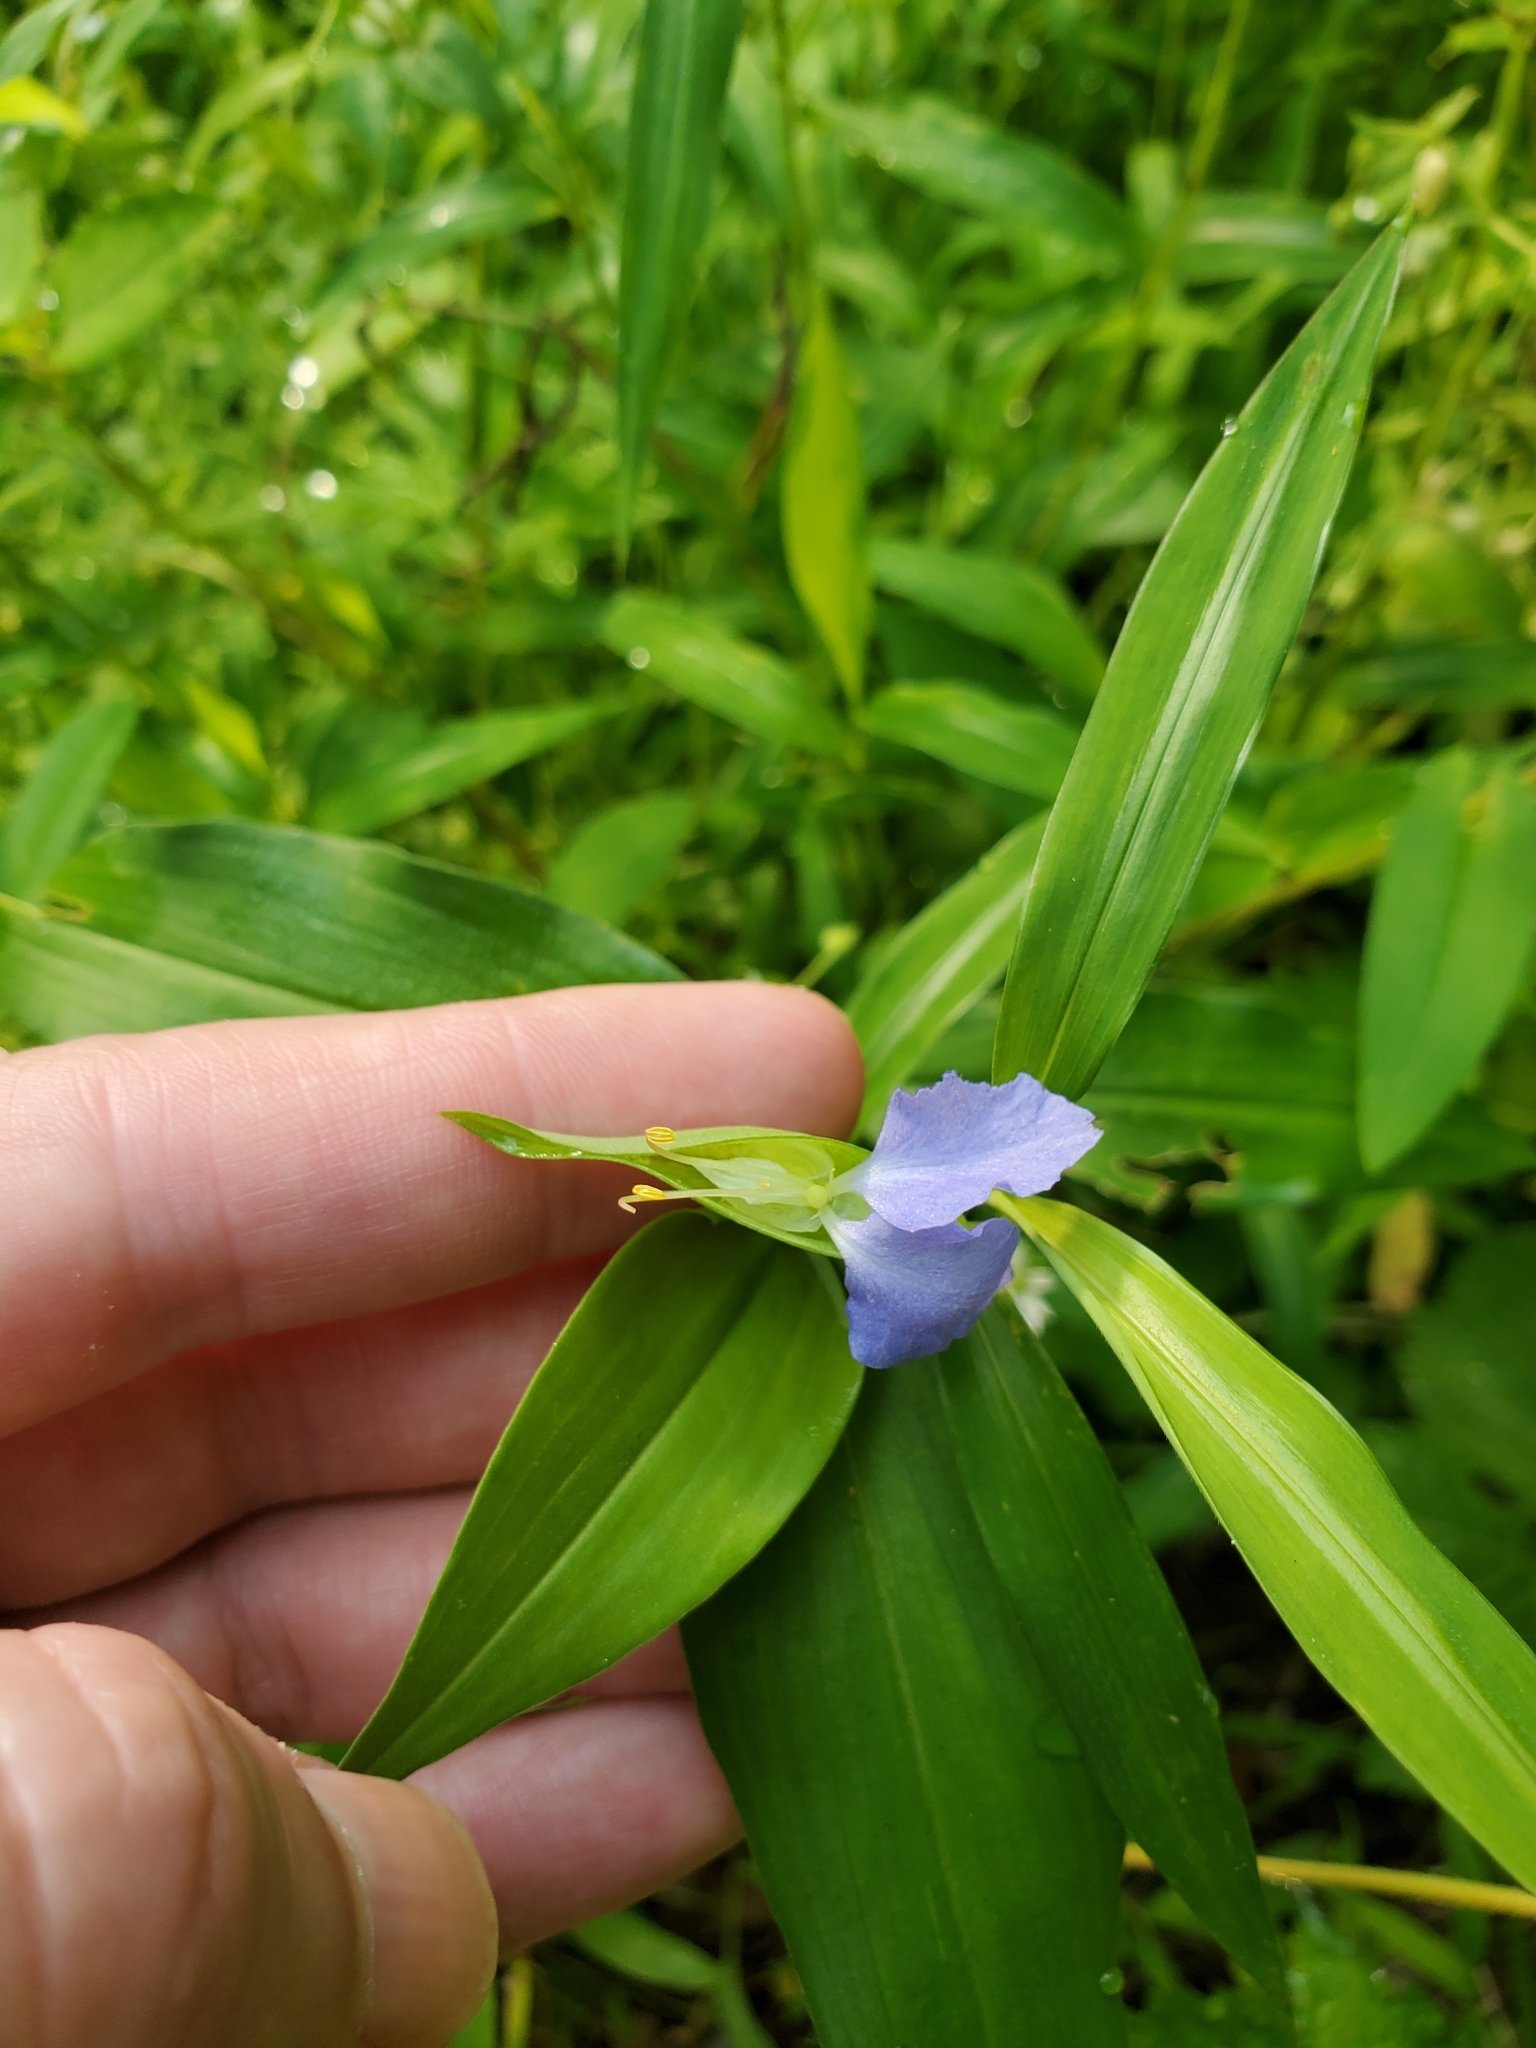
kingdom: Plantae
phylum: Tracheophyta
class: Liliopsida
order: Commelinales
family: Commelinaceae
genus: Commelina
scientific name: Commelina communis
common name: Asiatic dayflower
